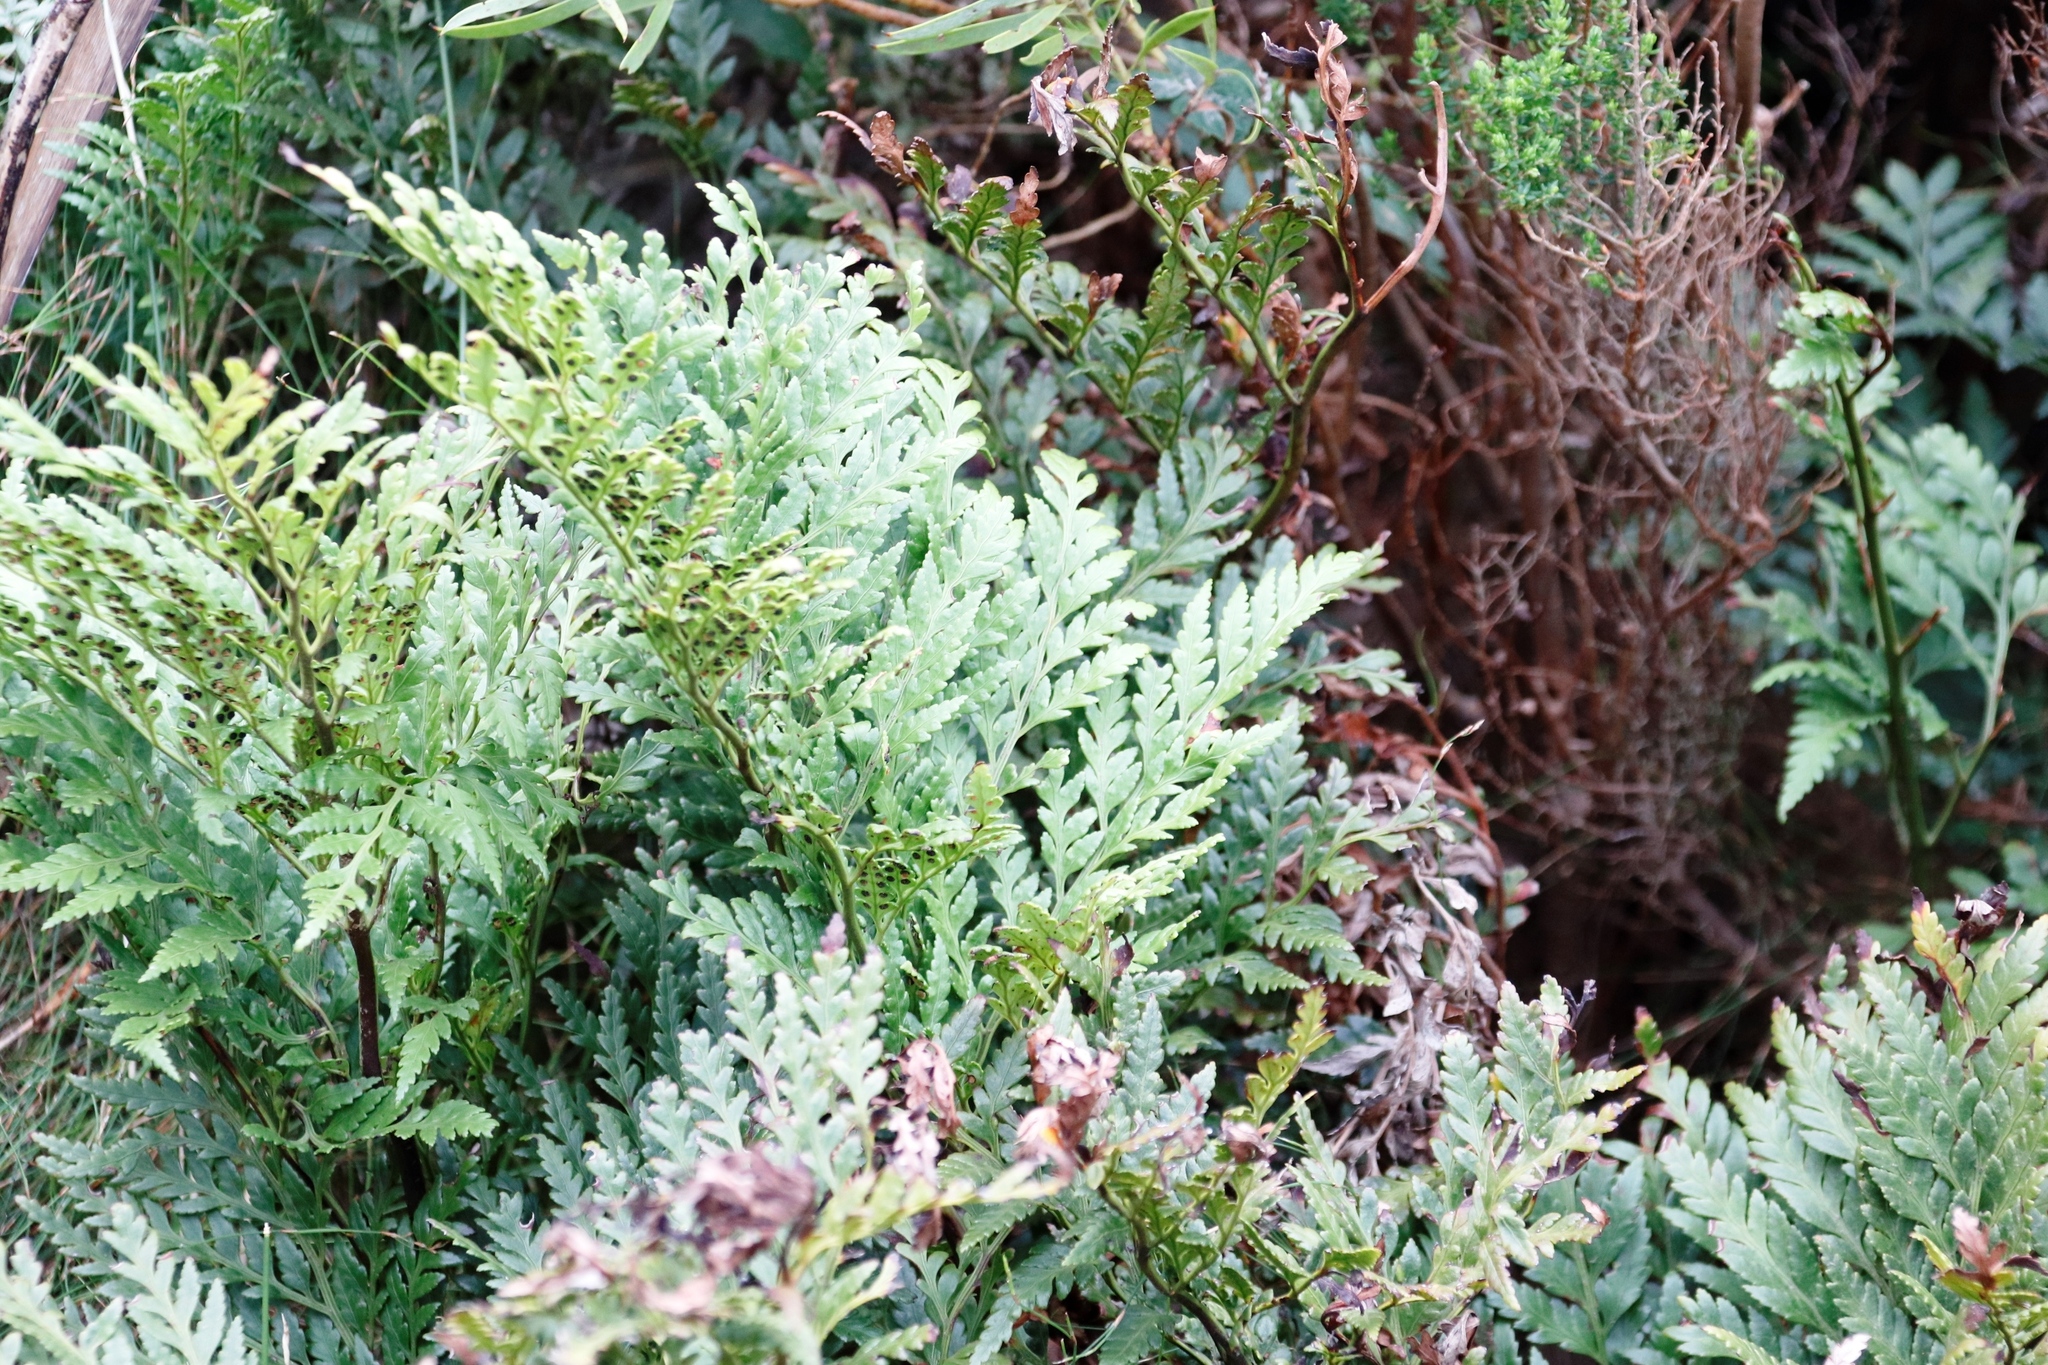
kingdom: Plantae
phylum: Tracheophyta
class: Polypodiopsida
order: Polypodiales
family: Dryopteridaceae
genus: Rumohra
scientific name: Rumohra adiantiformis
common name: Leather fern
